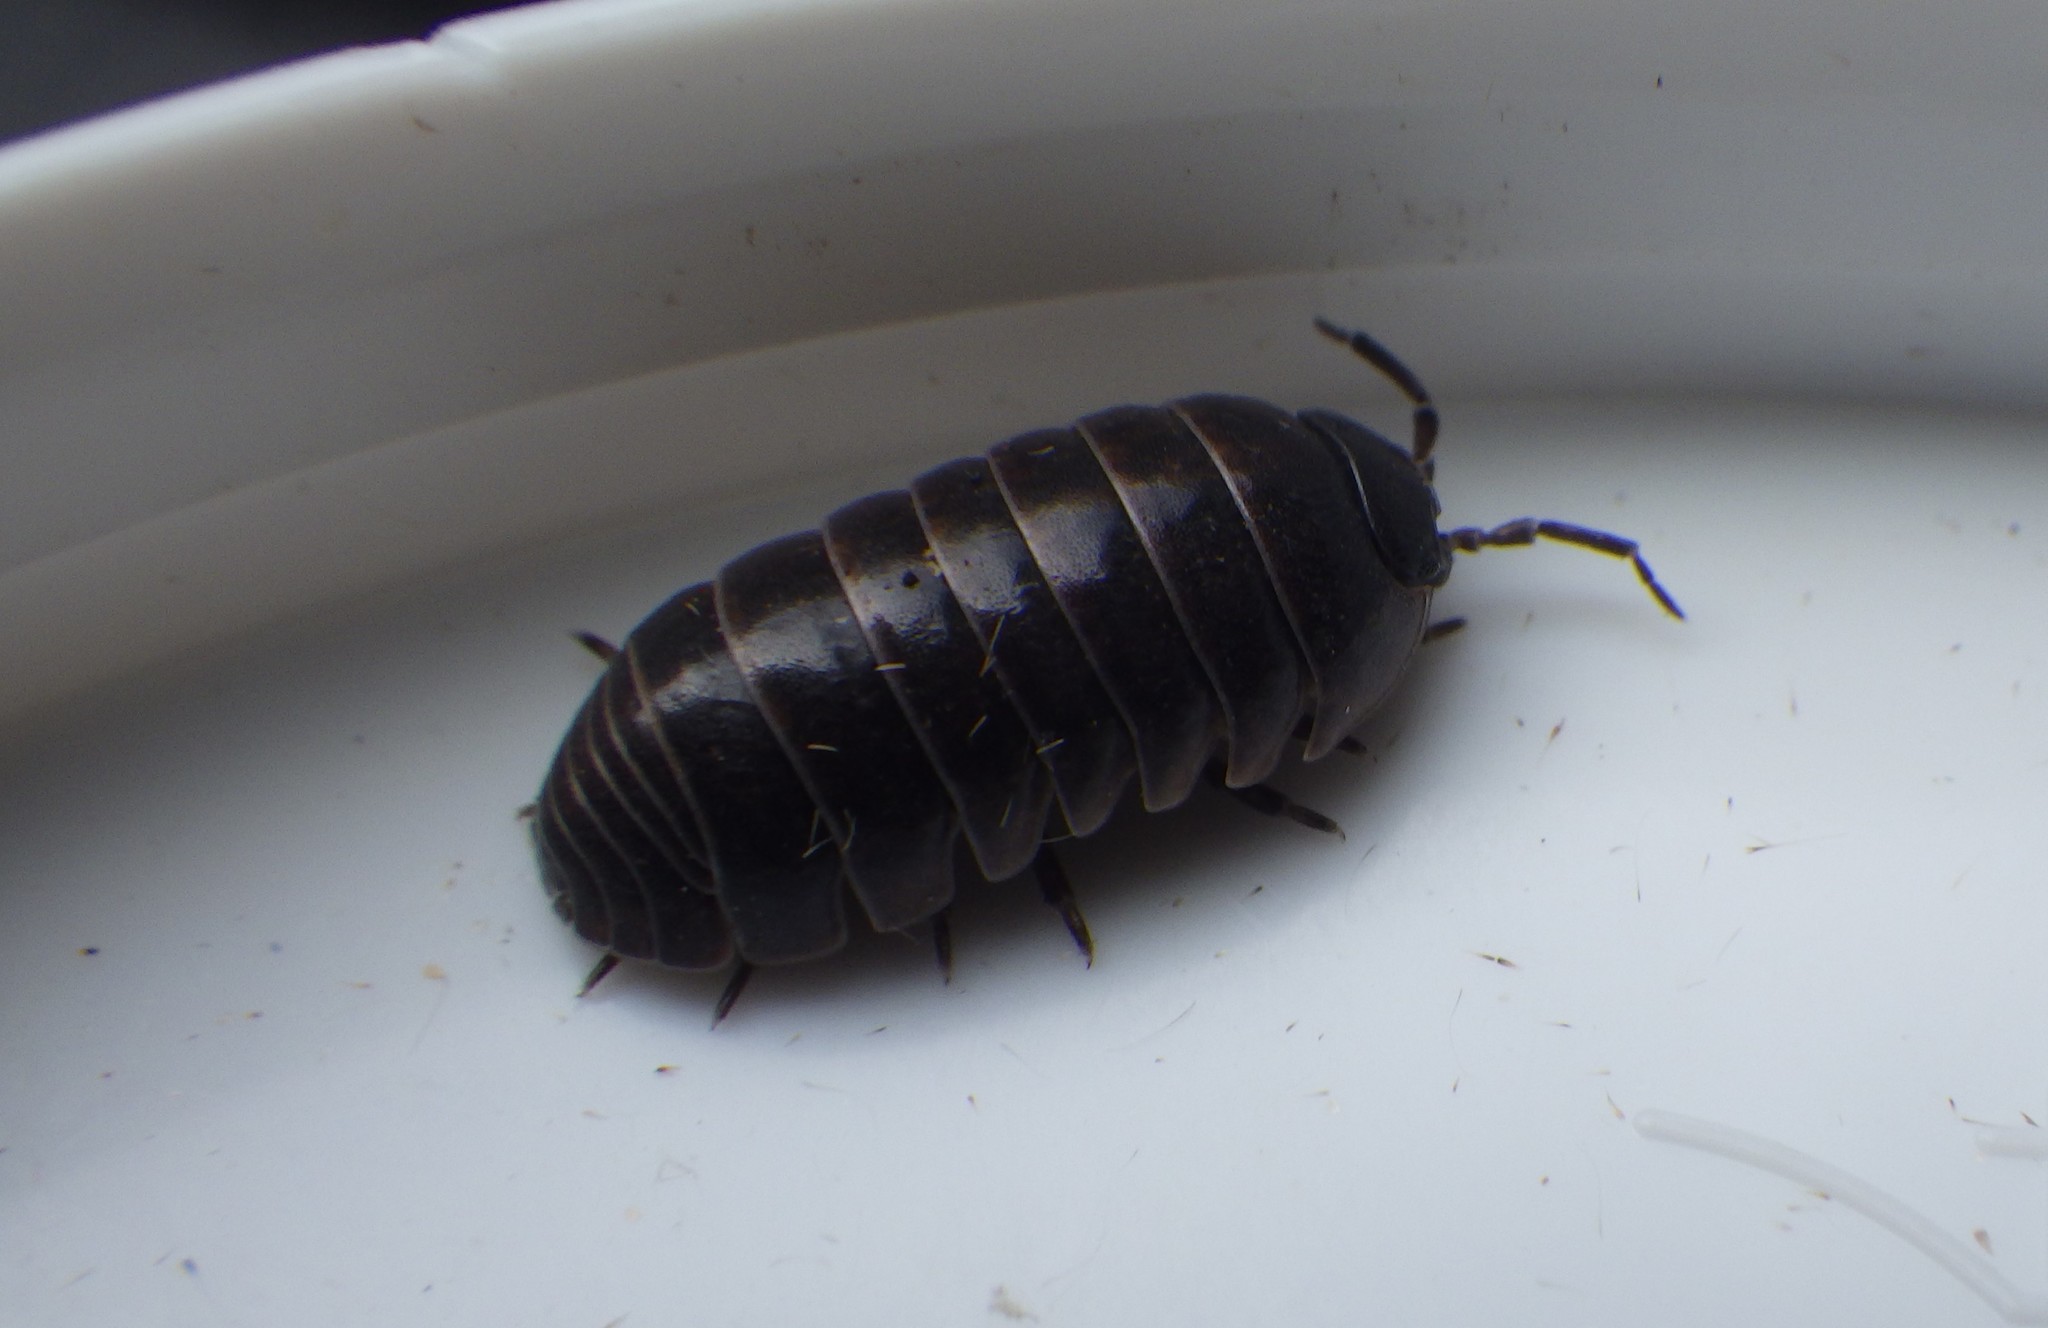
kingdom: Animalia
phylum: Arthropoda
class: Malacostraca
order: Isopoda
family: Armadillidiidae
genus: Armadillidium
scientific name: Armadillidium vulgare
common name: Common pill woodlouse
